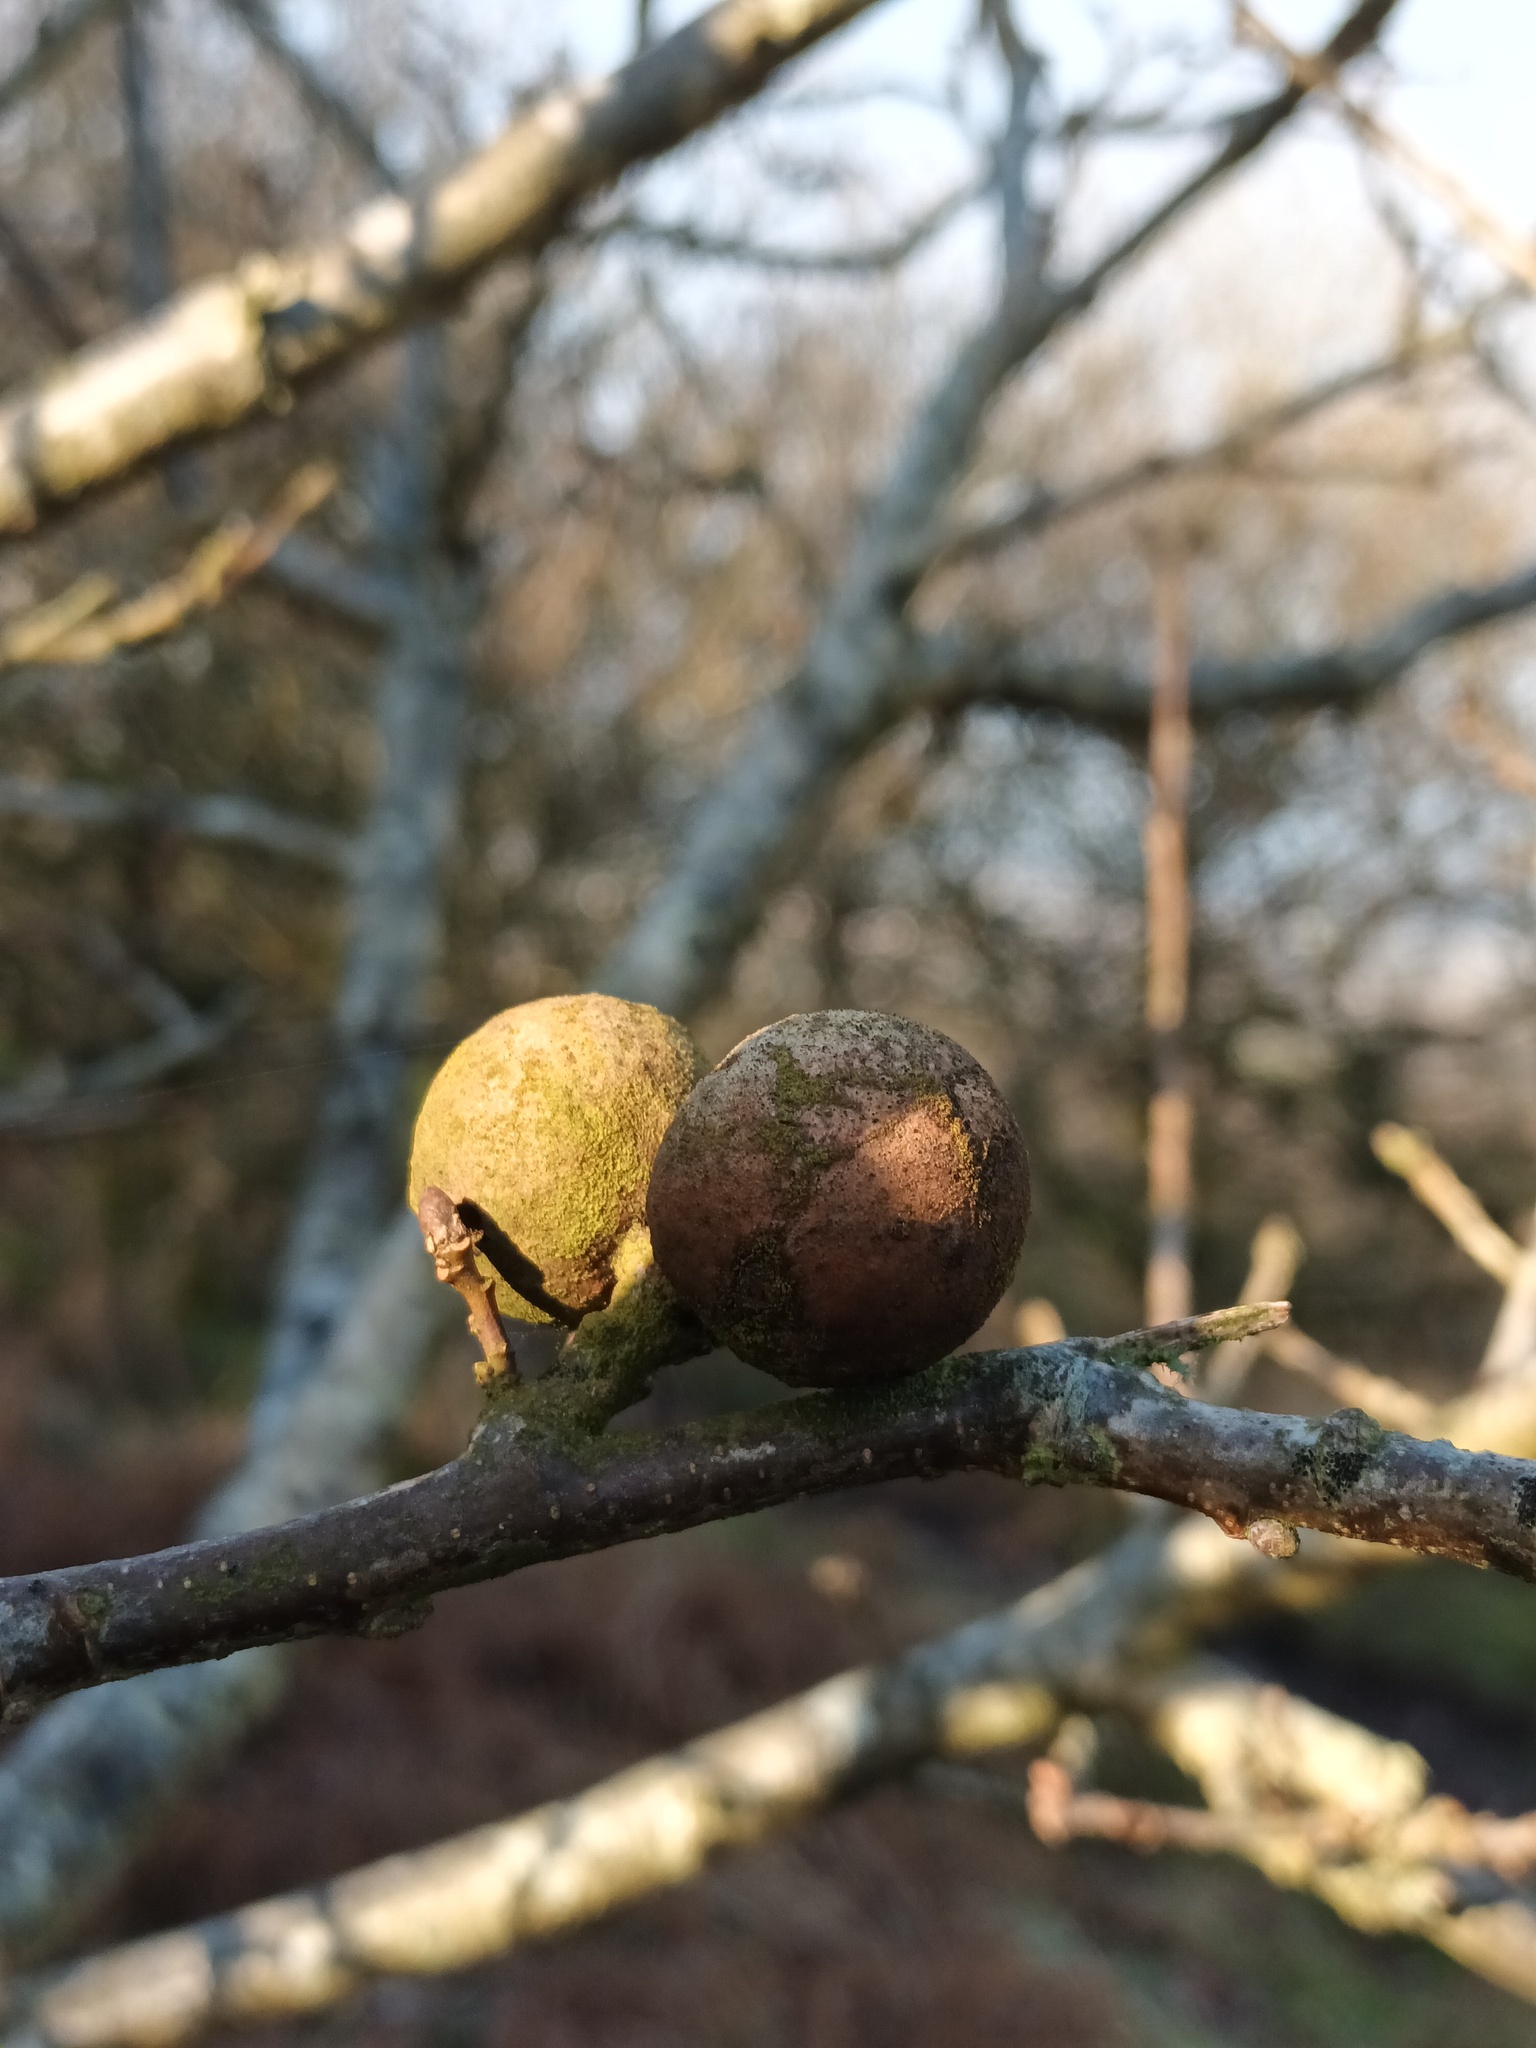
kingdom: Animalia
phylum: Arthropoda
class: Insecta
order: Hymenoptera
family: Cynipidae
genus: Andricus
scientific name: Andricus kollari
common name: Marble gall
